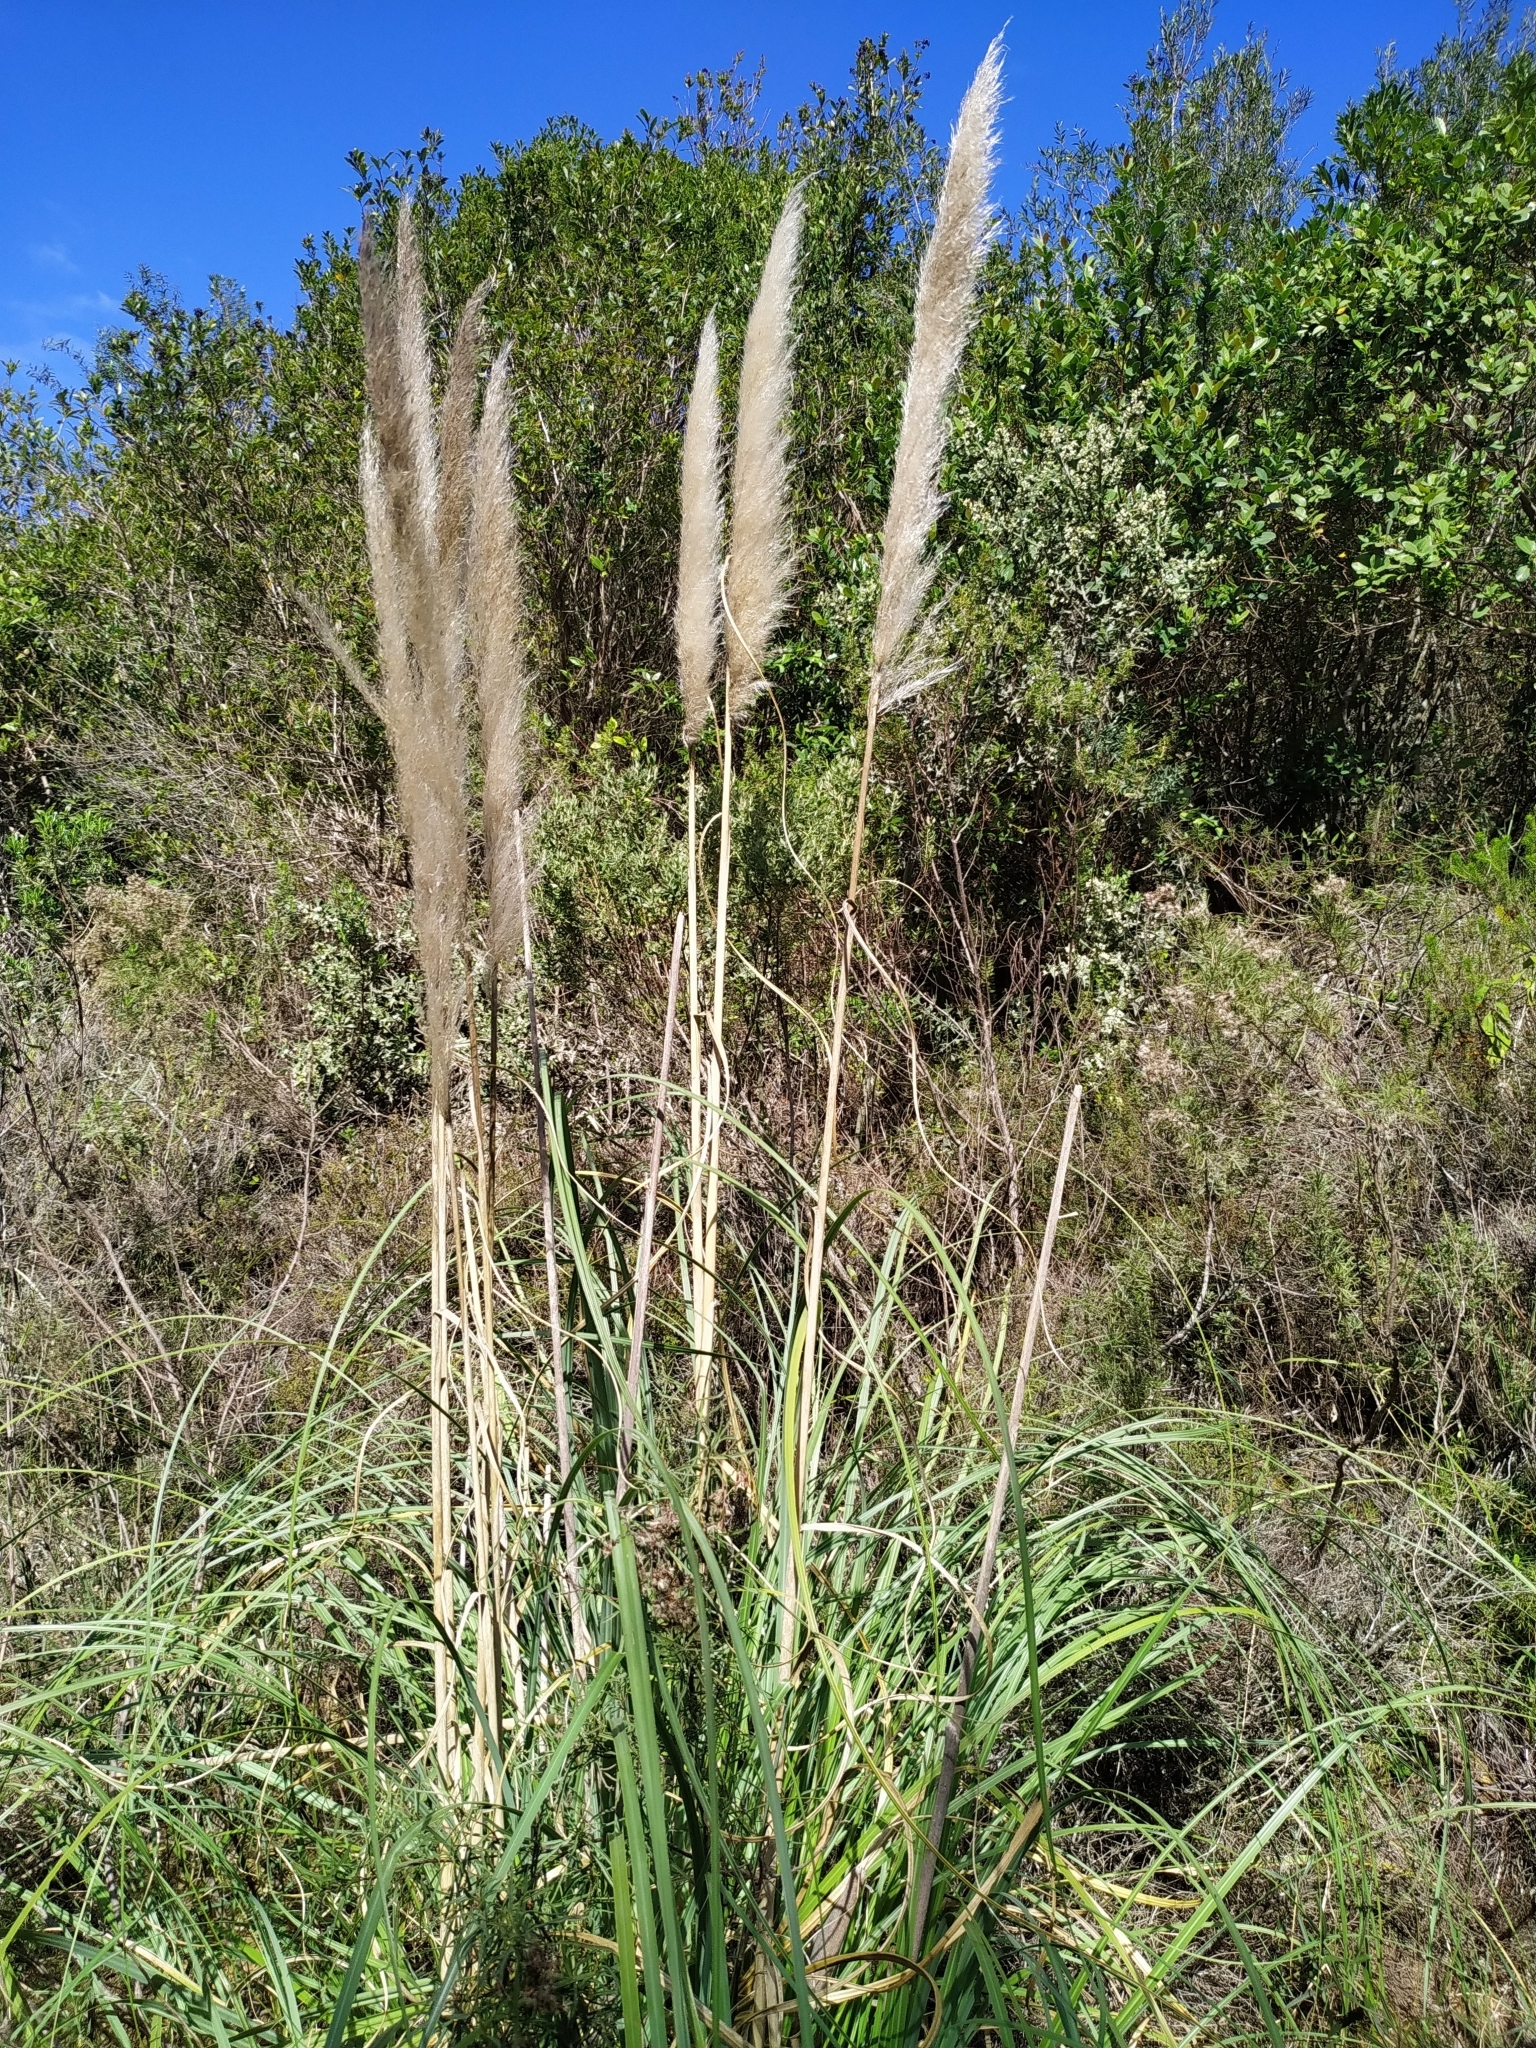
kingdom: Plantae
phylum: Tracheophyta
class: Liliopsida
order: Poales
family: Poaceae
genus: Cortaderia
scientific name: Cortaderia selloana
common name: Uruguayan pampas grass
